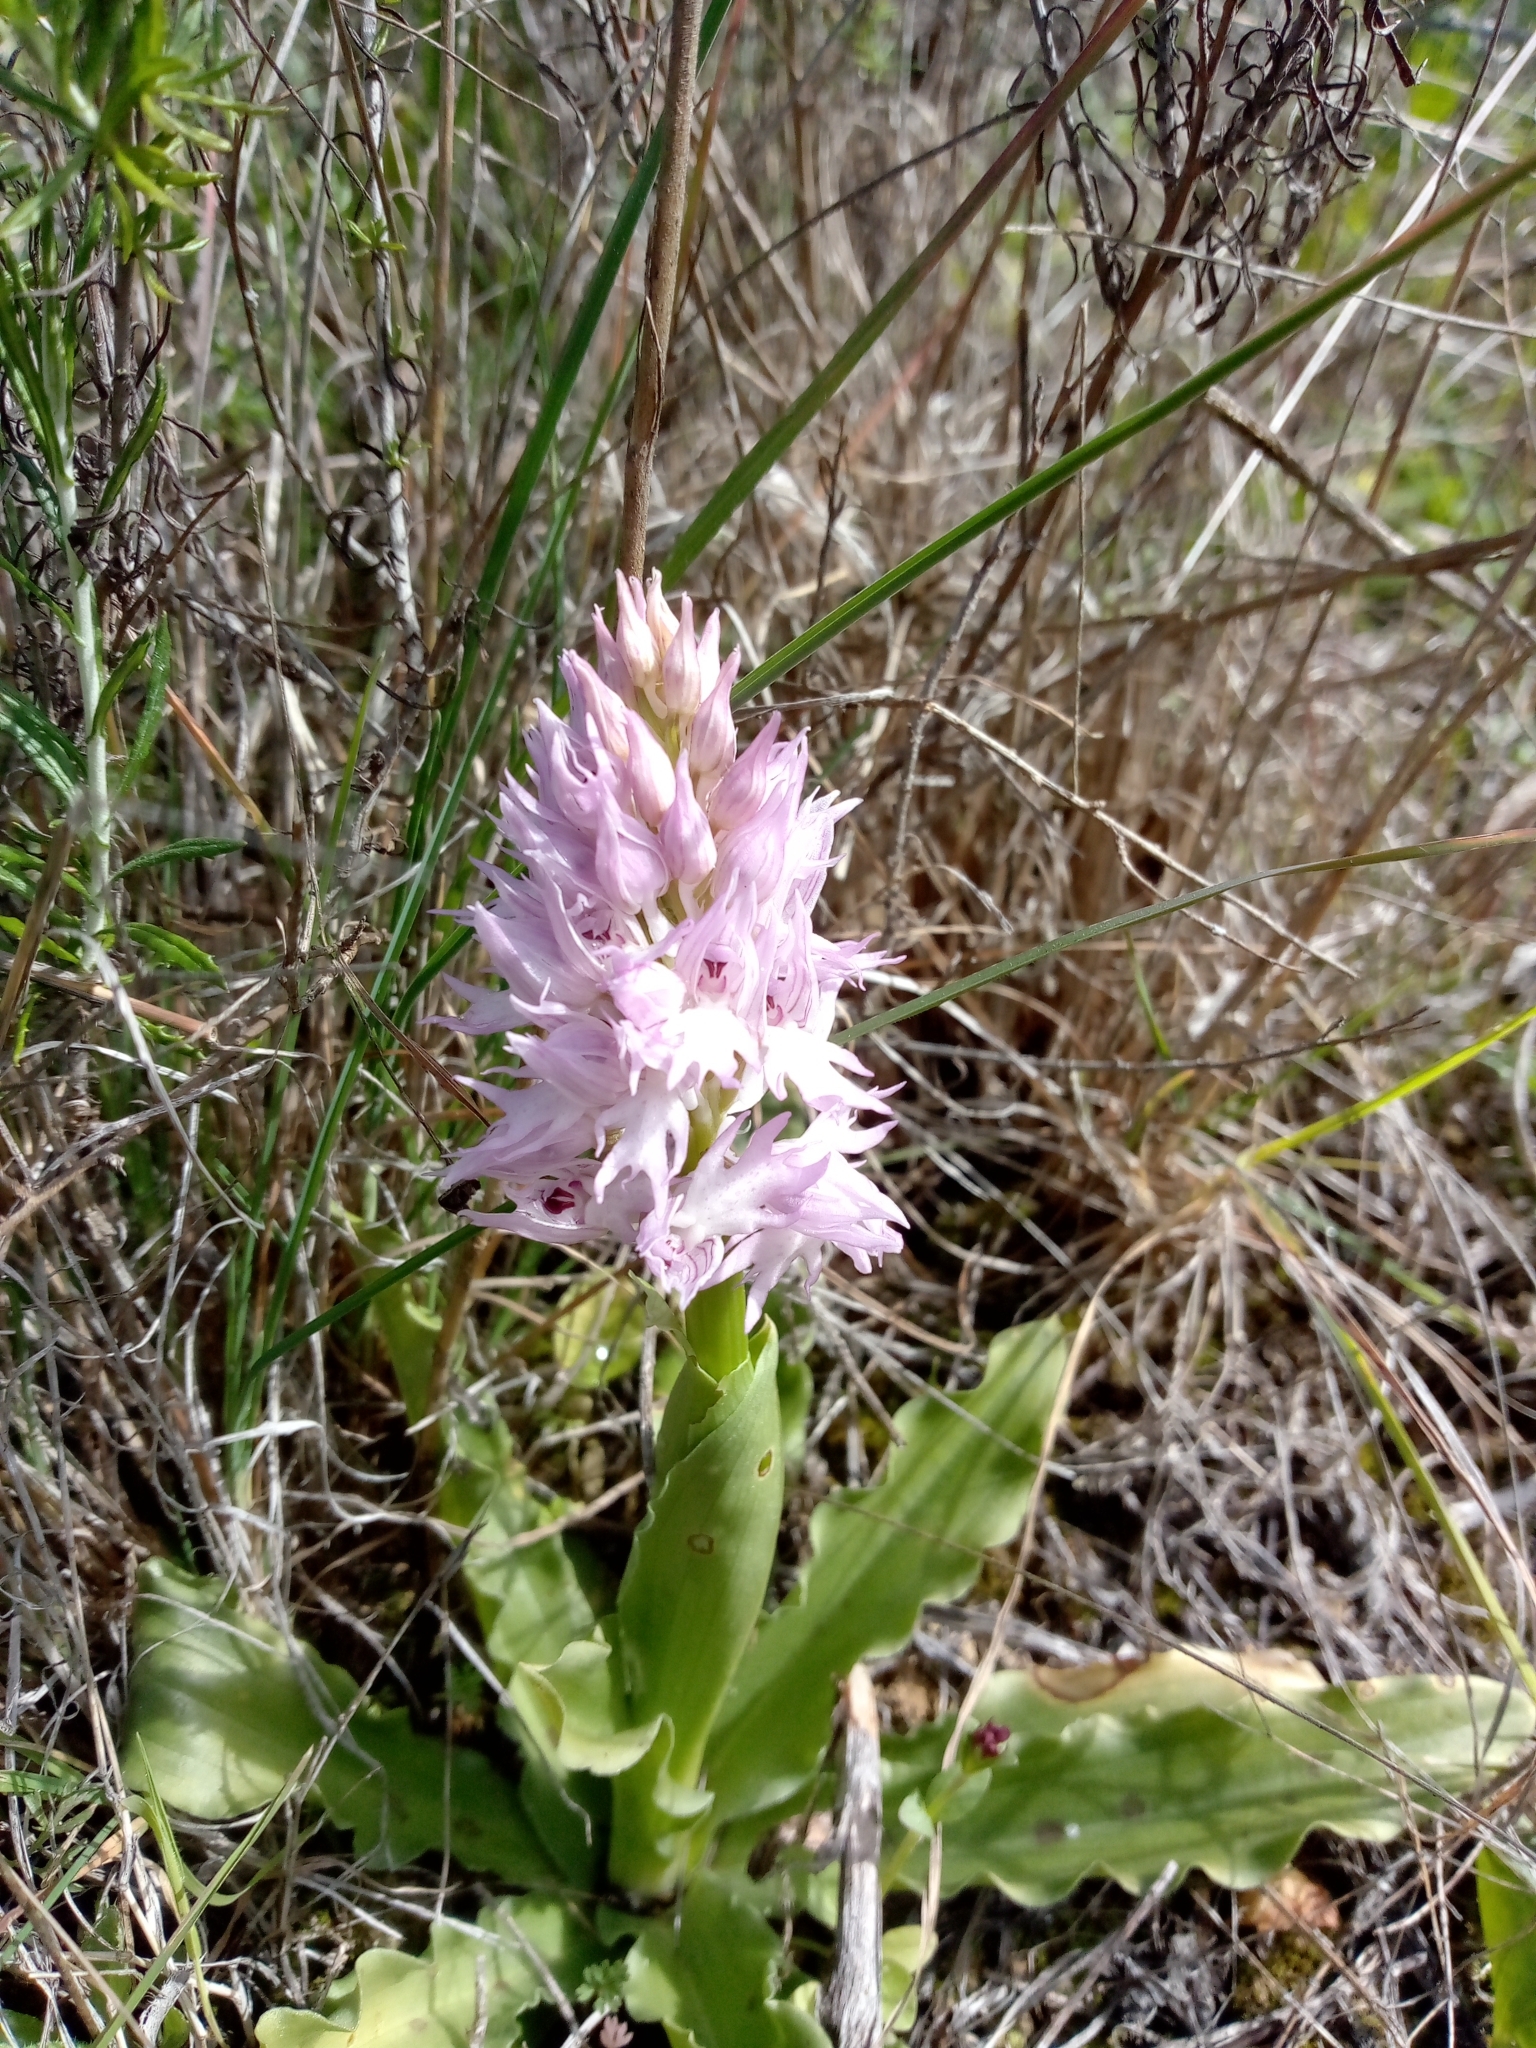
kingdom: Plantae
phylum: Tracheophyta
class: Liliopsida
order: Asparagales
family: Orchidaceae
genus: Orchis
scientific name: Orchis italica
